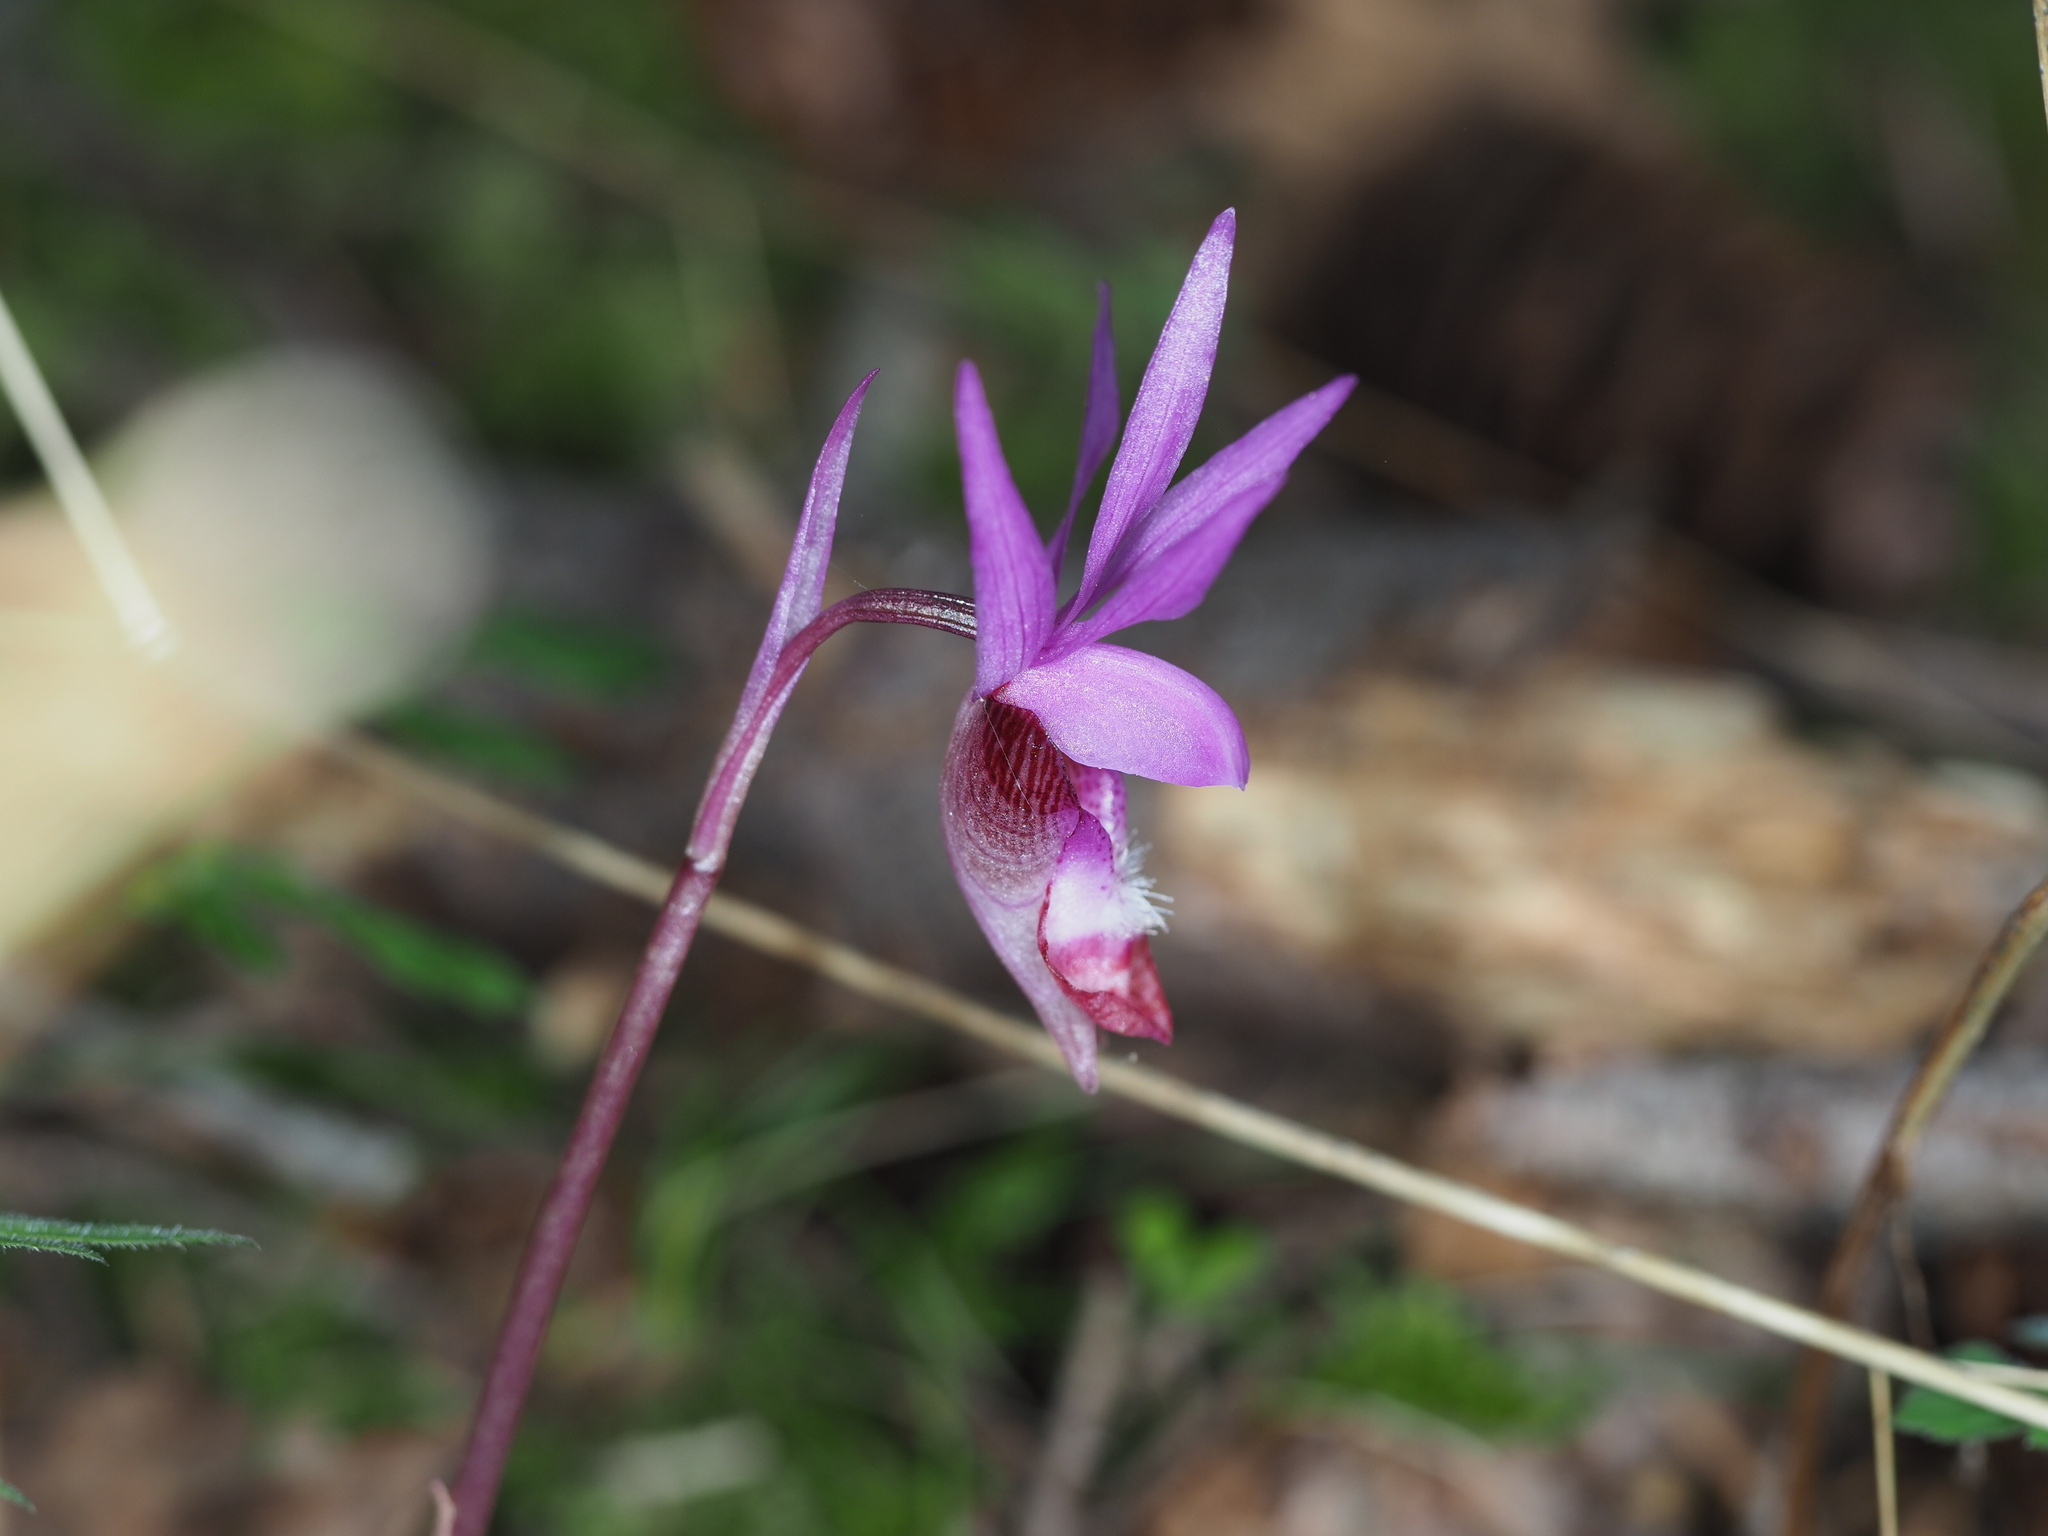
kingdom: Plantae
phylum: Tracheophyta
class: Liliopsida
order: Asparagales
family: Orchidaceae
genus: Calypso
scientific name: Calypso bulbosa
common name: Calypso
